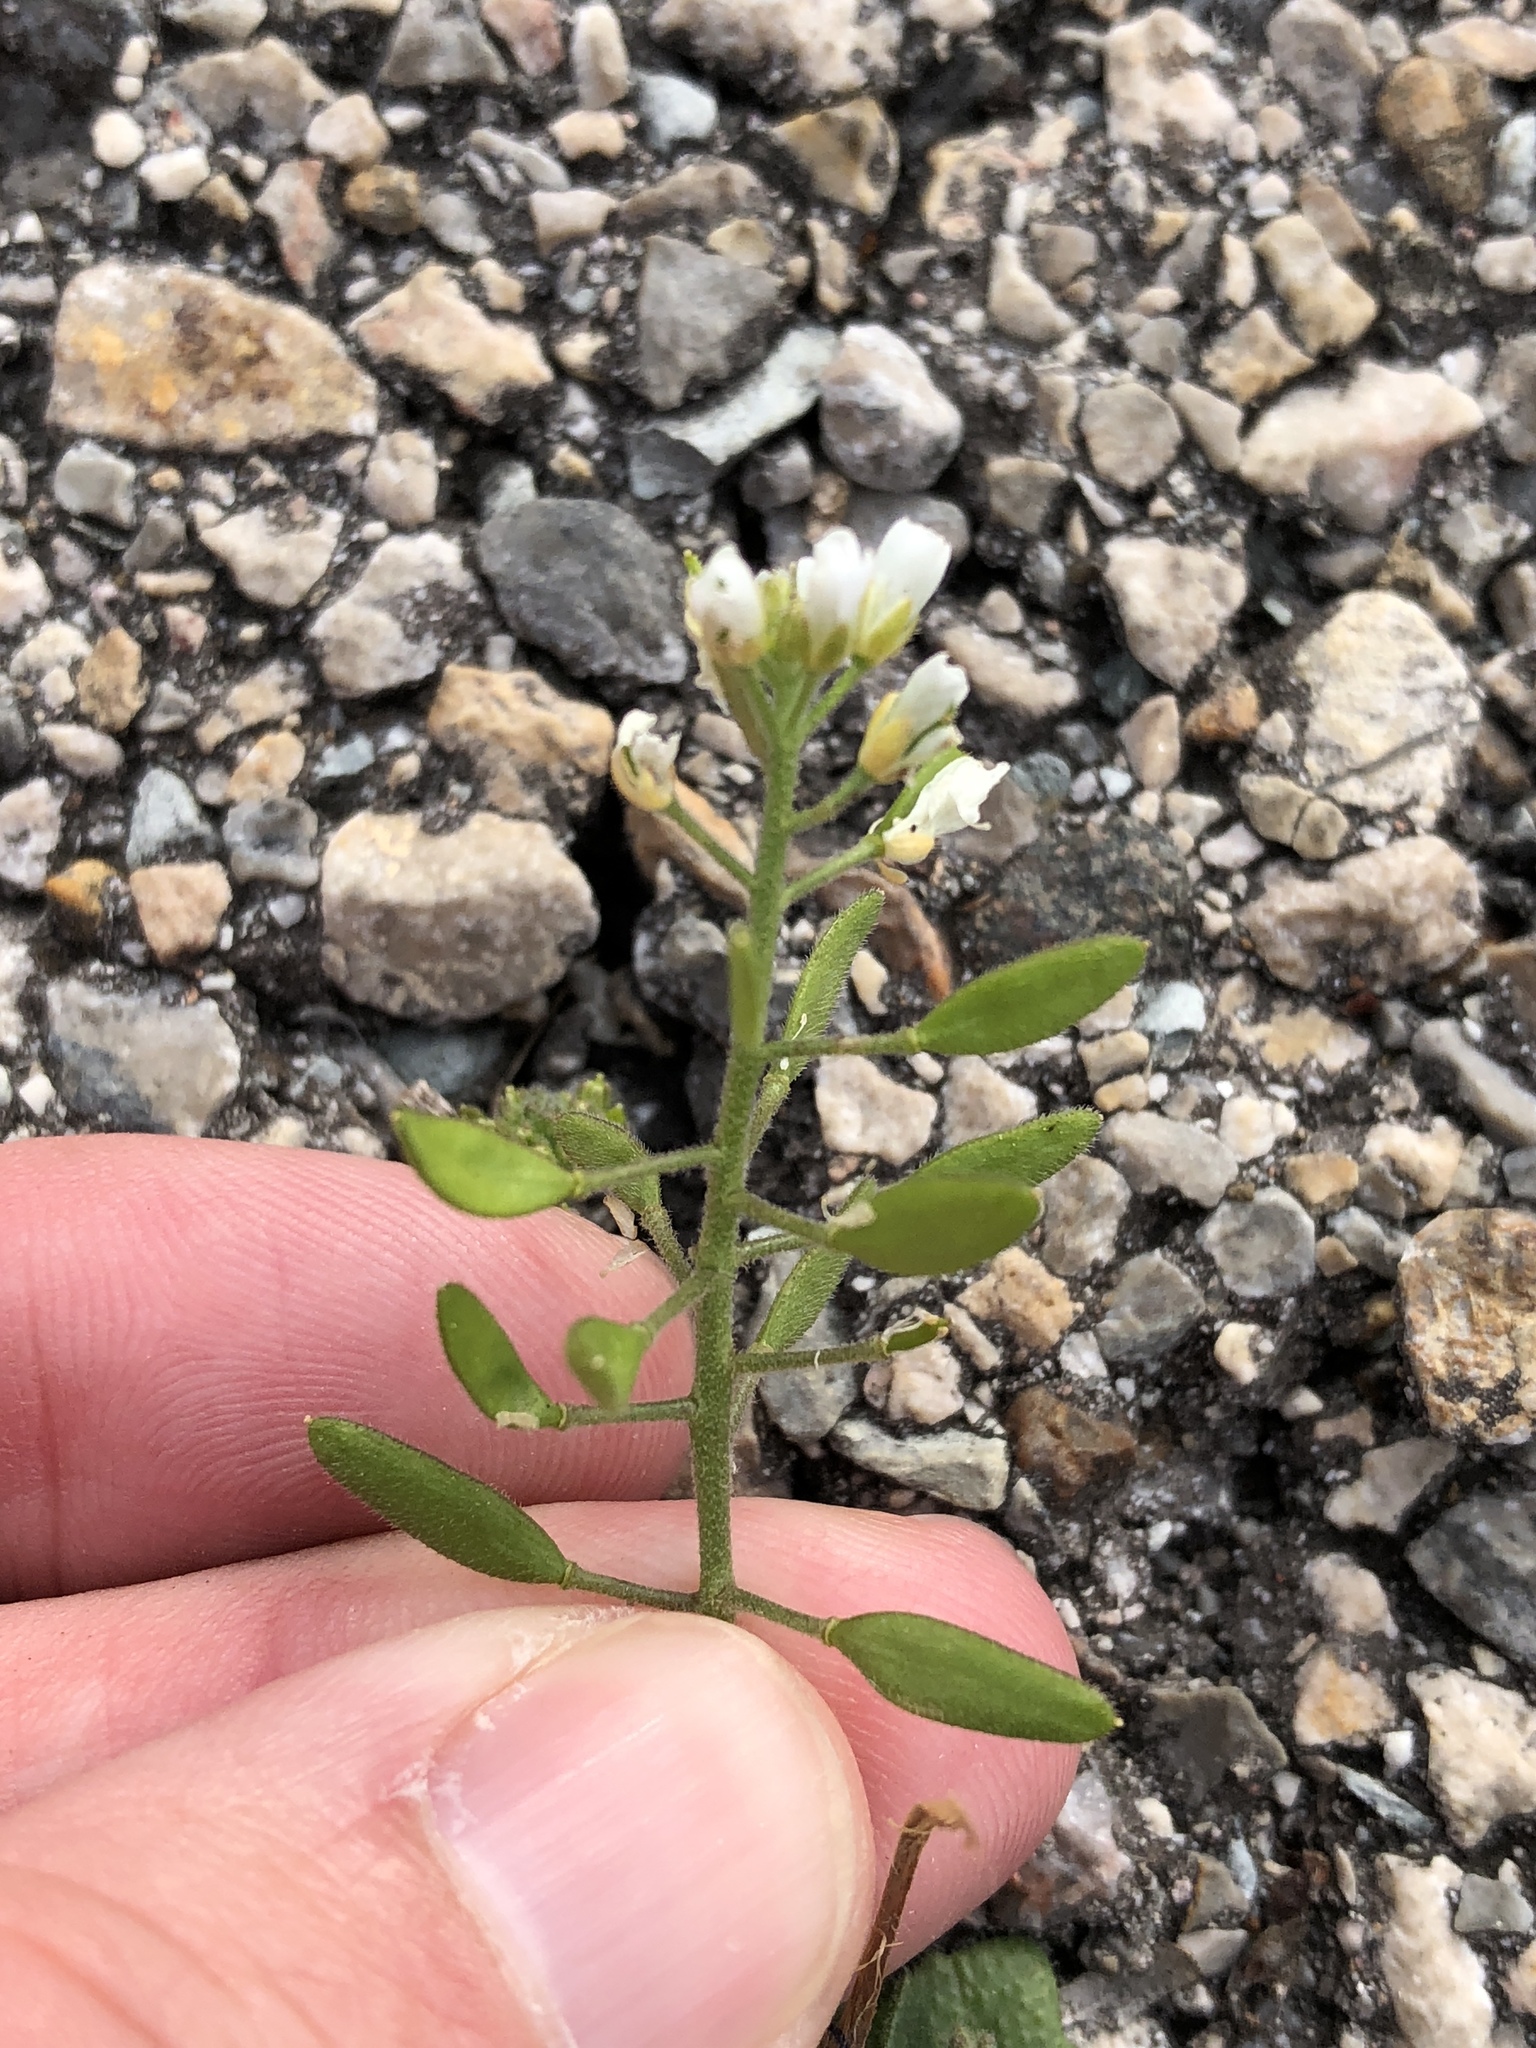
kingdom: Plantae
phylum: Tracheophyta
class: Magnoliopsida
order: Brassicales
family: Brassicaceae
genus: Tomostima
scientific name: Tomostima cuneifolia
